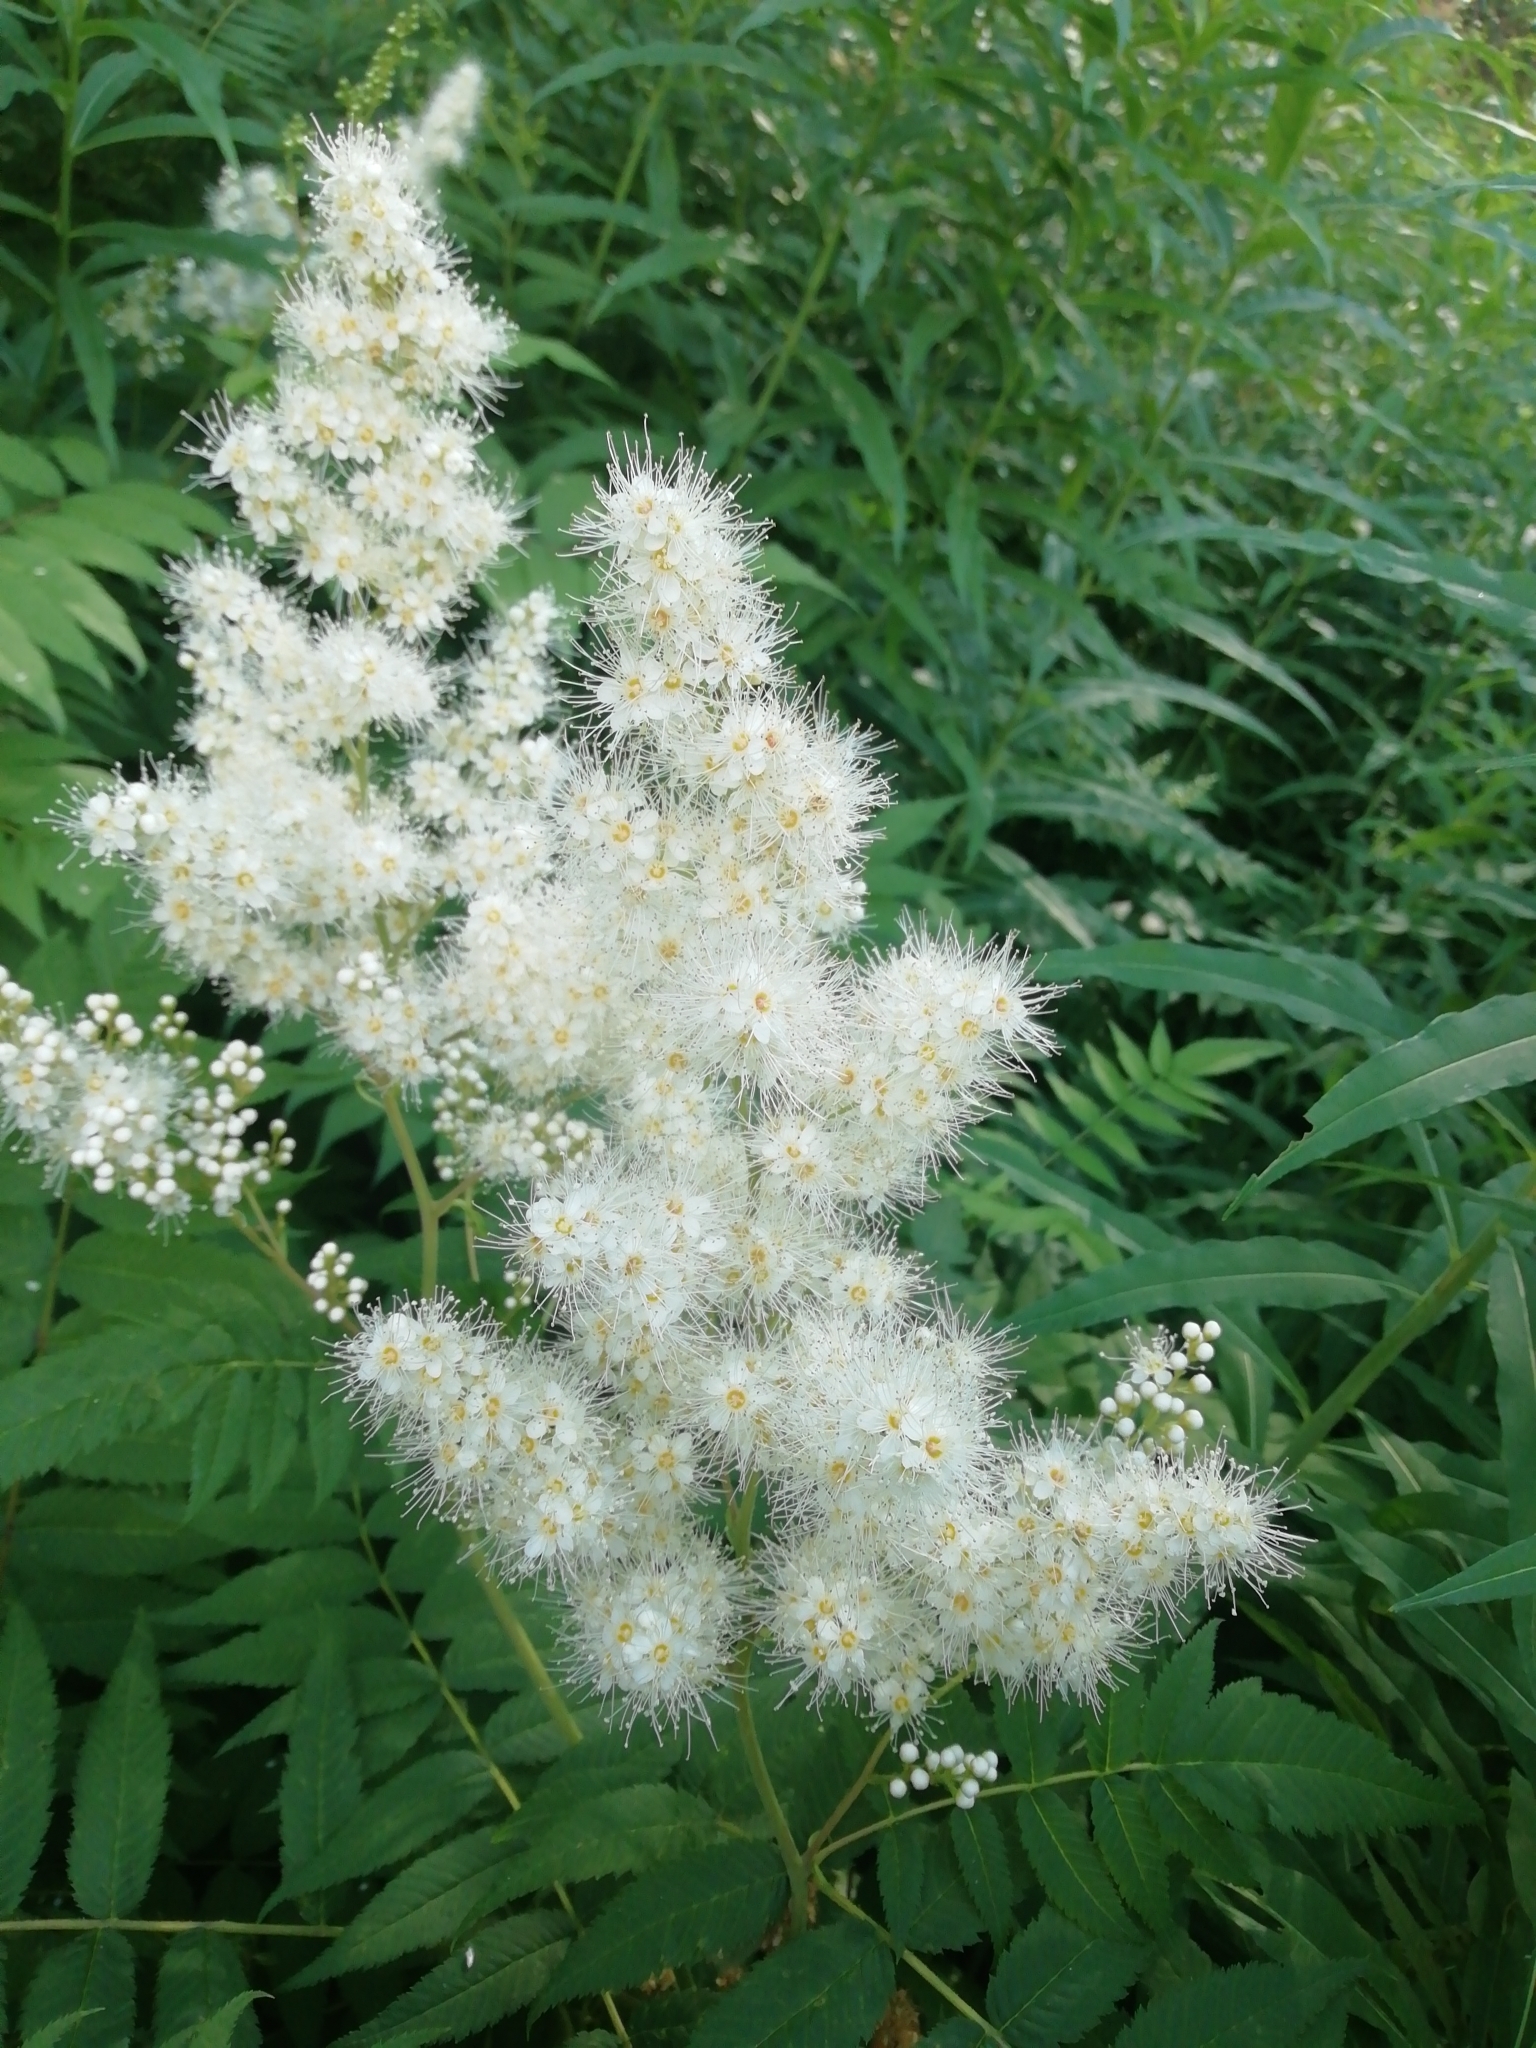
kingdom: Plantae
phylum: Tracheophyta
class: Magnoliopsida
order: Rosales
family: Rosaceae
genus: Sorbaria
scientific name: Sorbaria sorbifolia
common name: False spiraea
